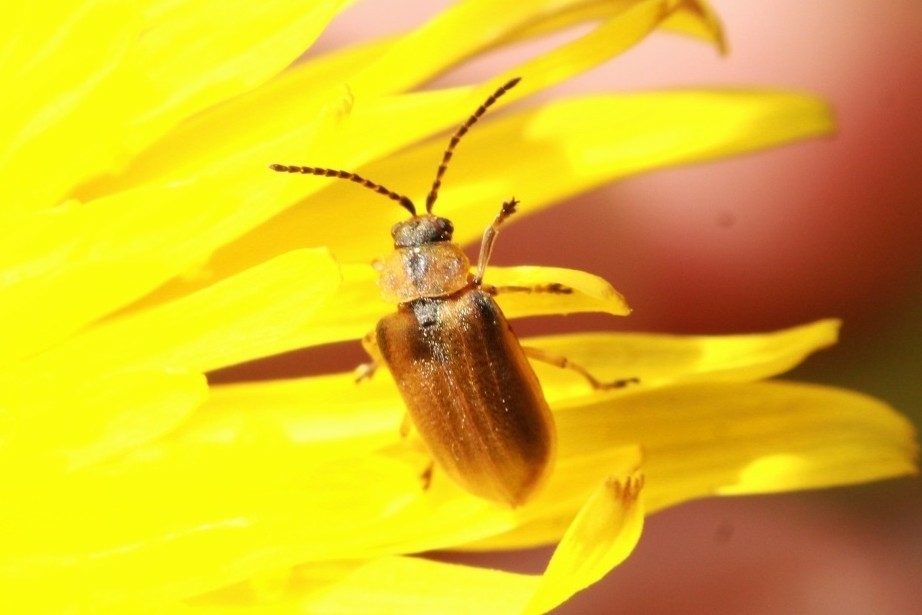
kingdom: Animalia
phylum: Arthropoda
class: Insecta
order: Coleoptera
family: Chrysomelidae
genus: Galerucella
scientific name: Galerucella lineola
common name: Brown willow beetle
